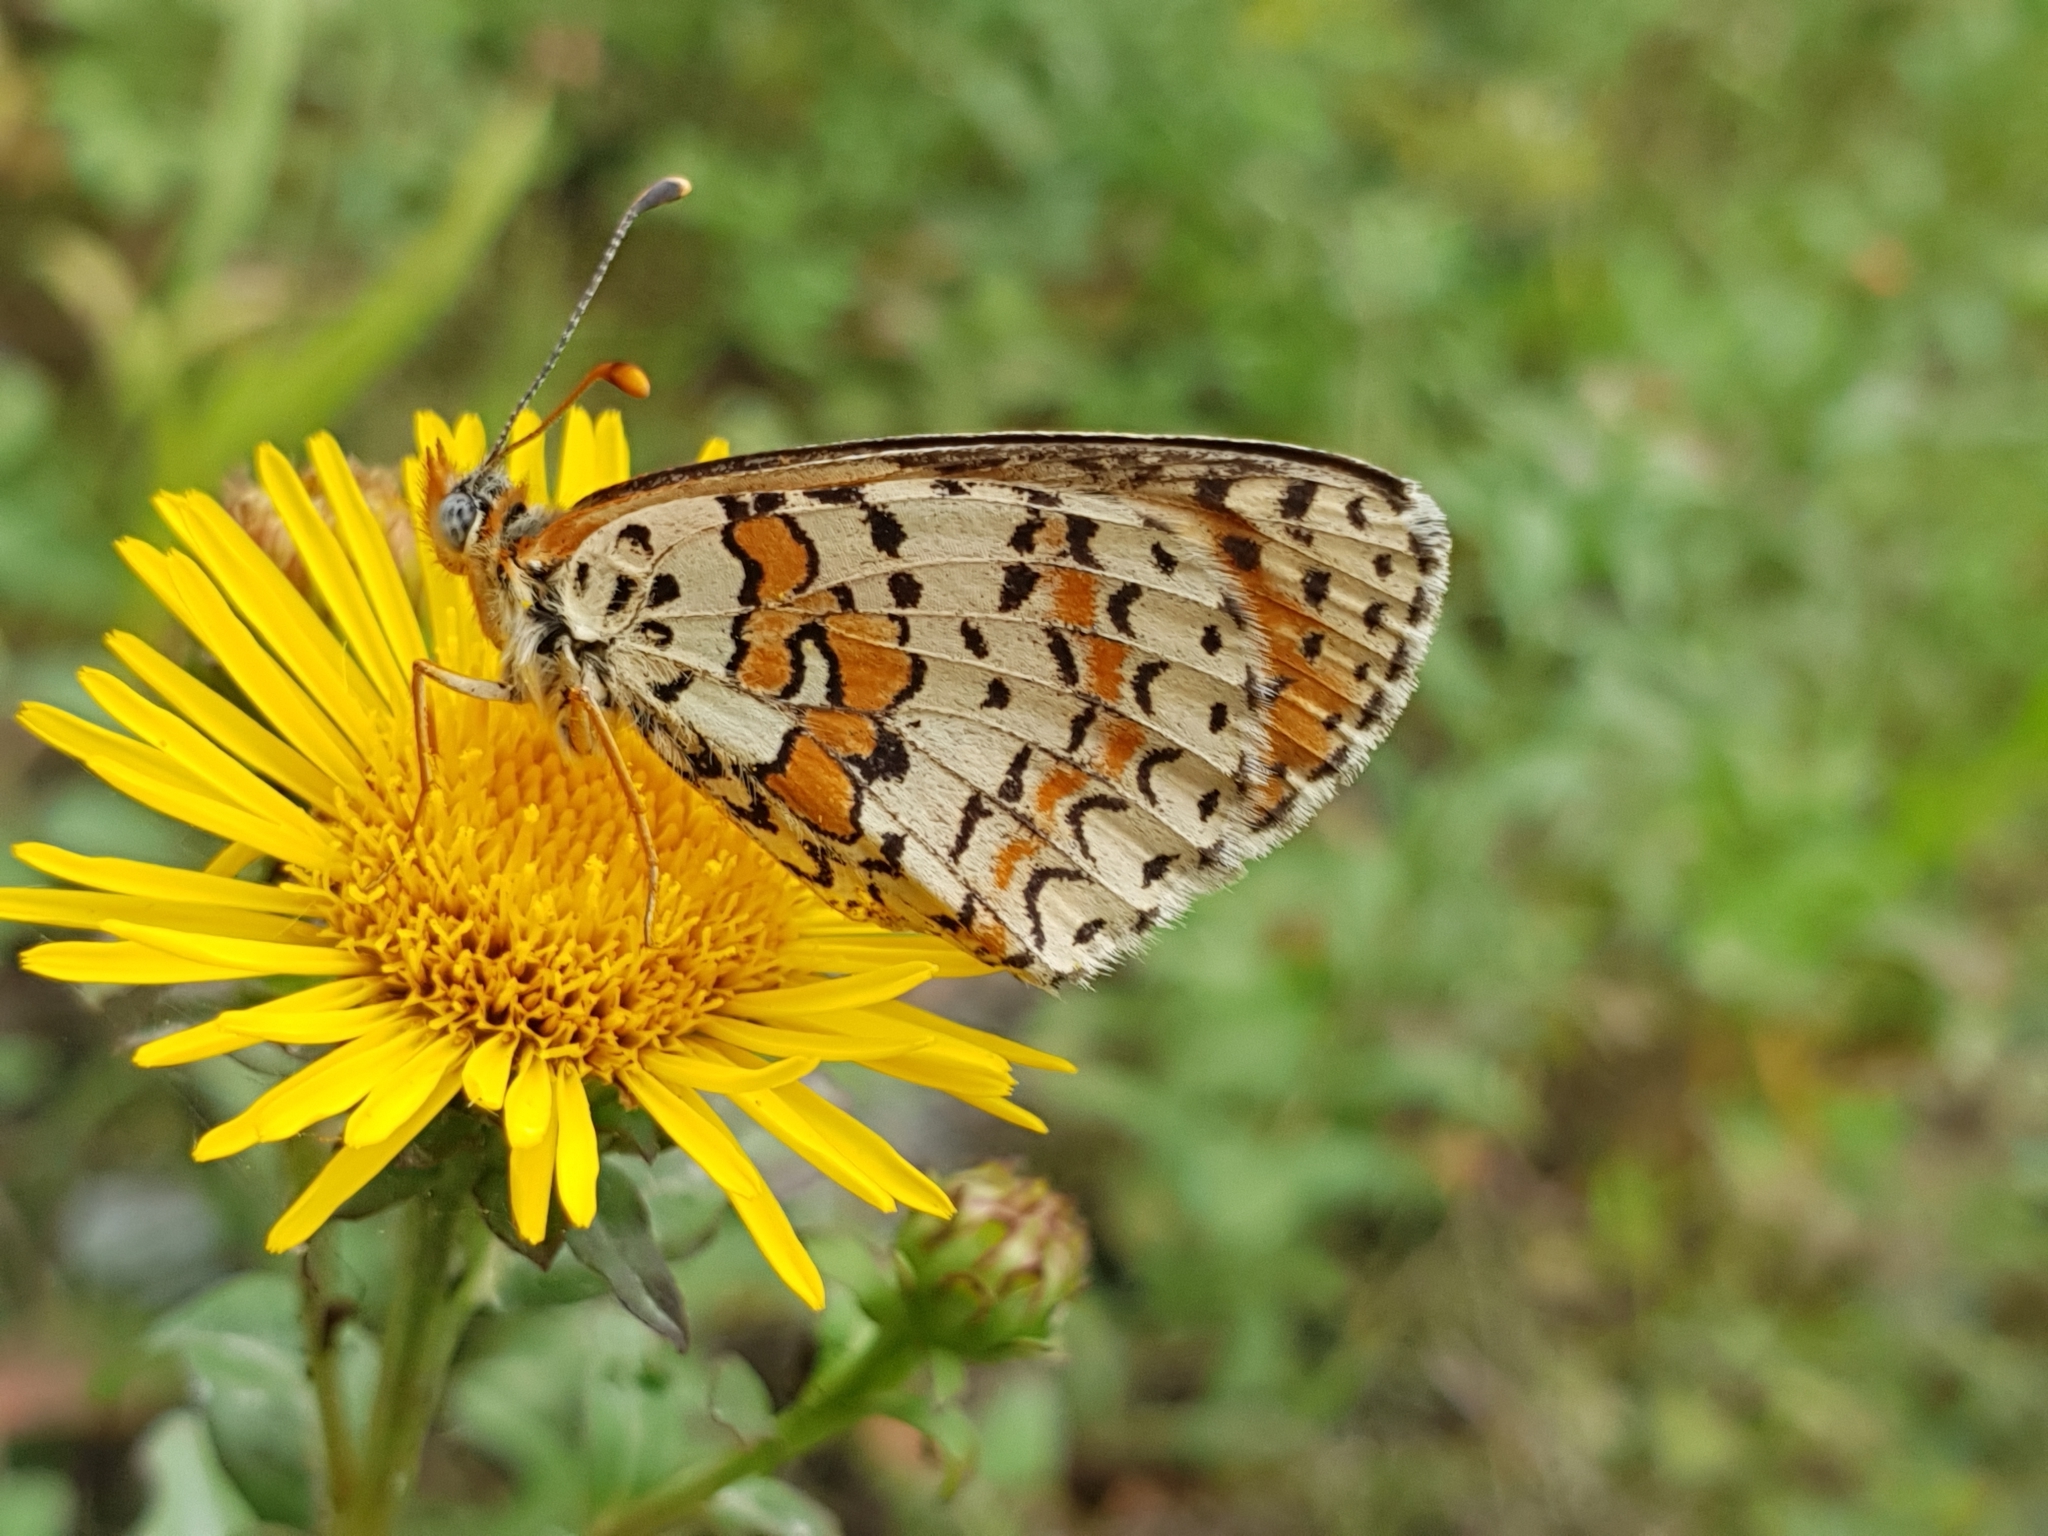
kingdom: Animalia
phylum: Arthropoda
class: Insecta
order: Lepidoptera
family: Nymphalidae
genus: Melitaea
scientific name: Melitaea cinxia
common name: Glanville fritillary
